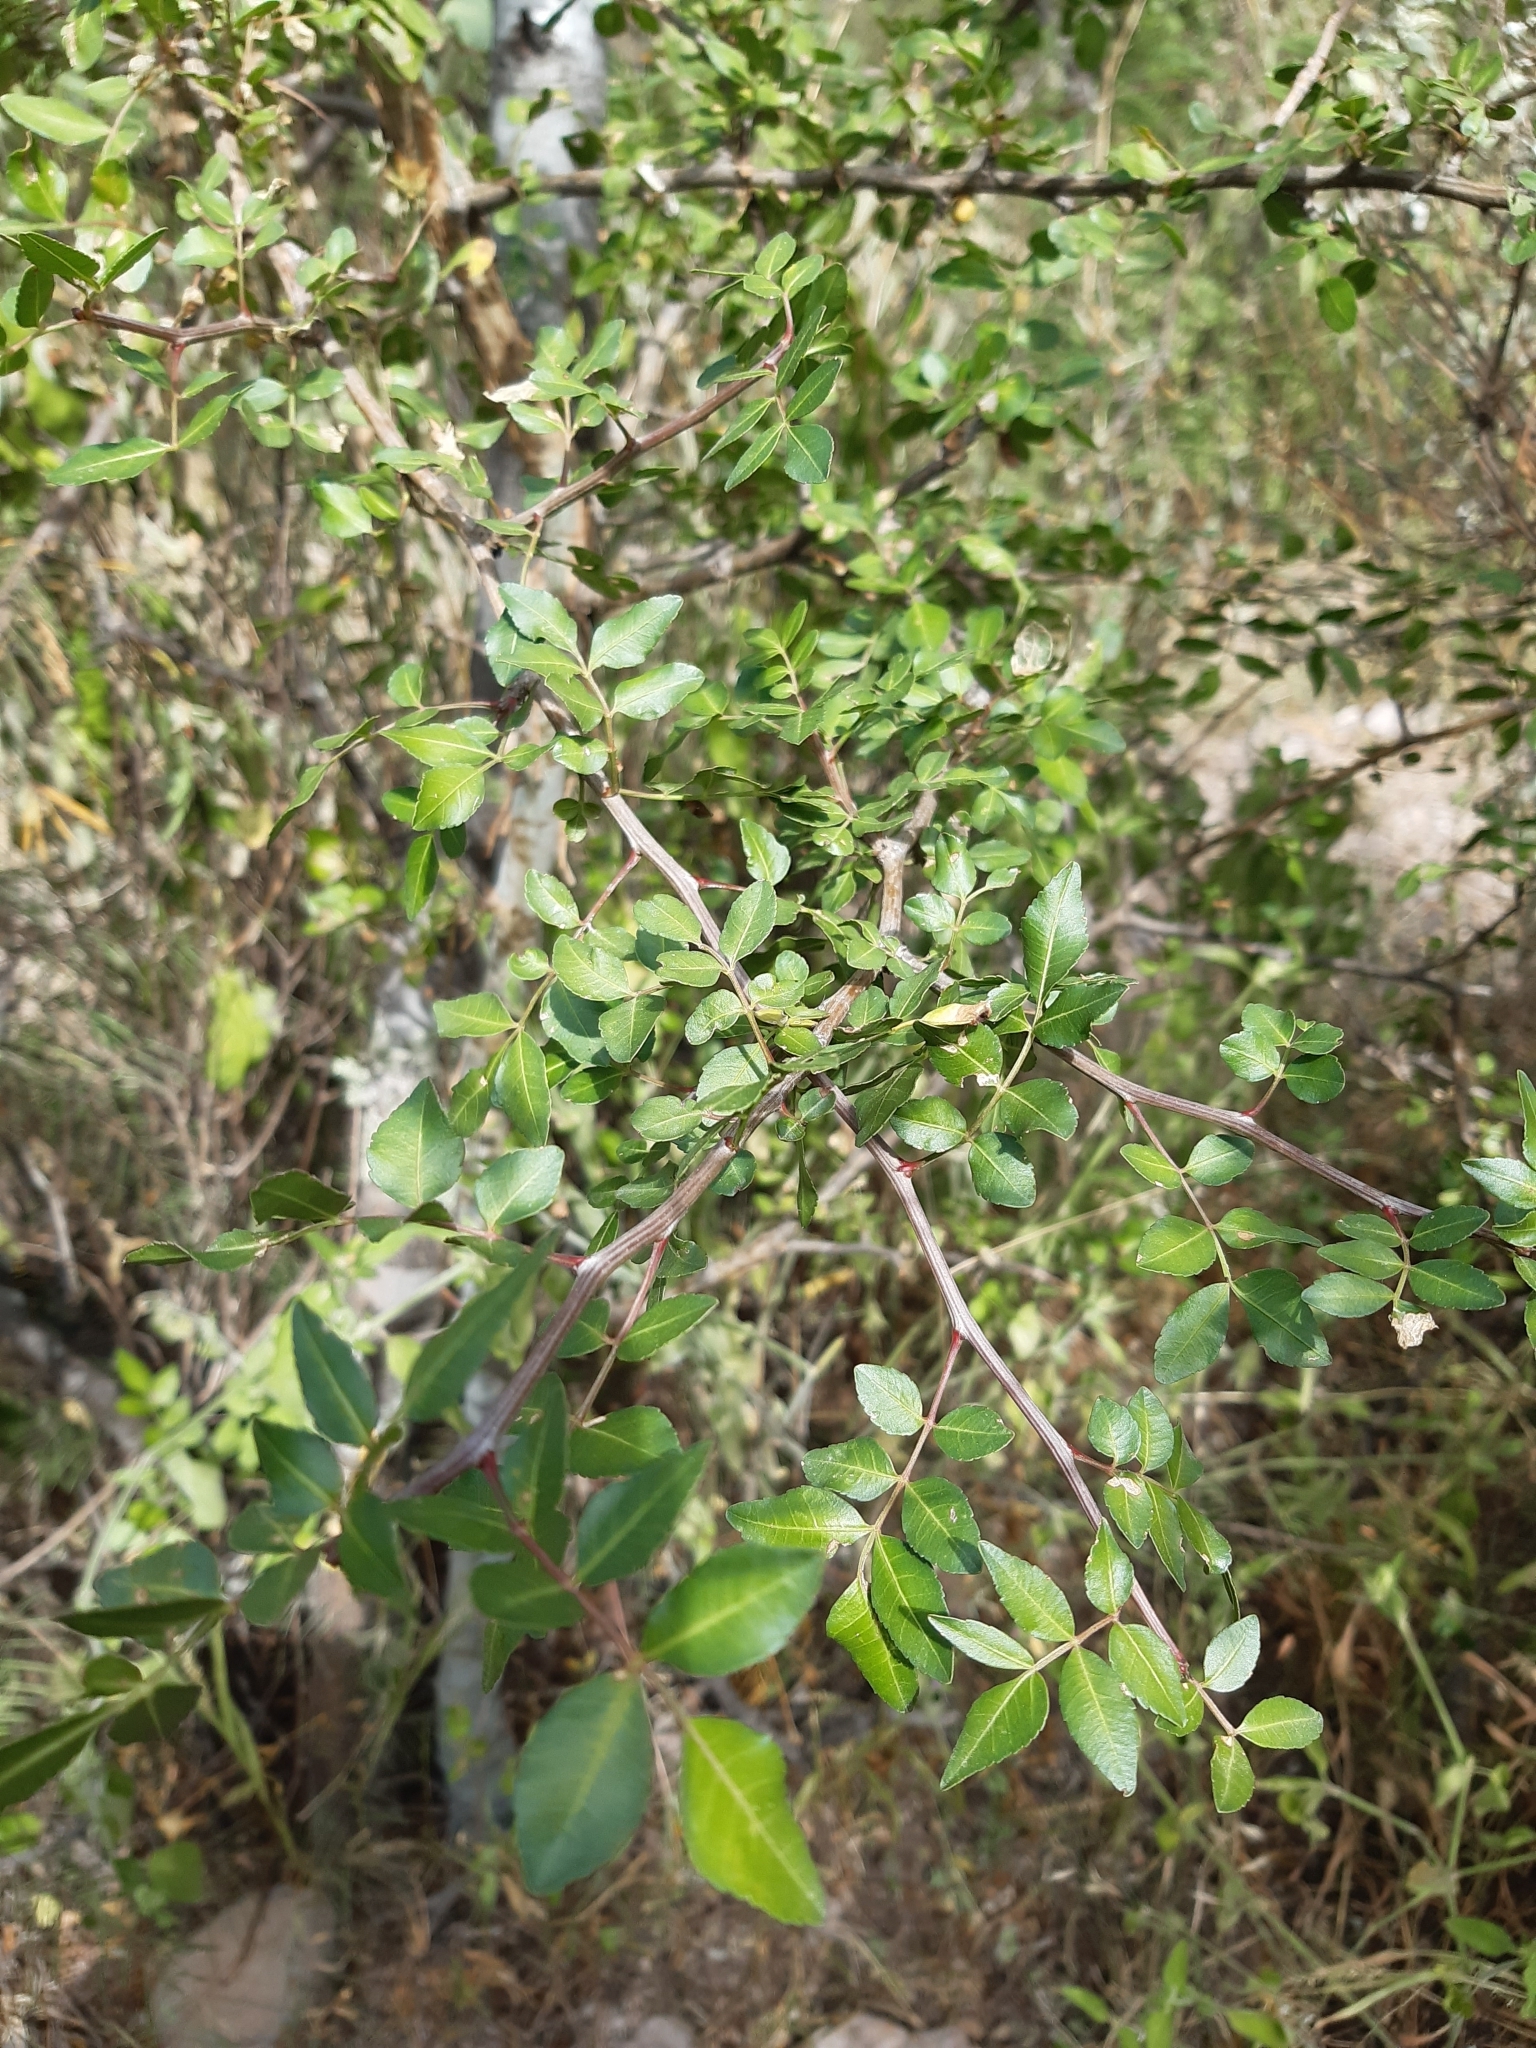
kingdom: Plantae
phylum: Tracheophyta
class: Magnoliopsida
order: Sapindales
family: Burseraceae
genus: Bursera
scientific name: Bursera fagaroides
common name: Elephant tree
